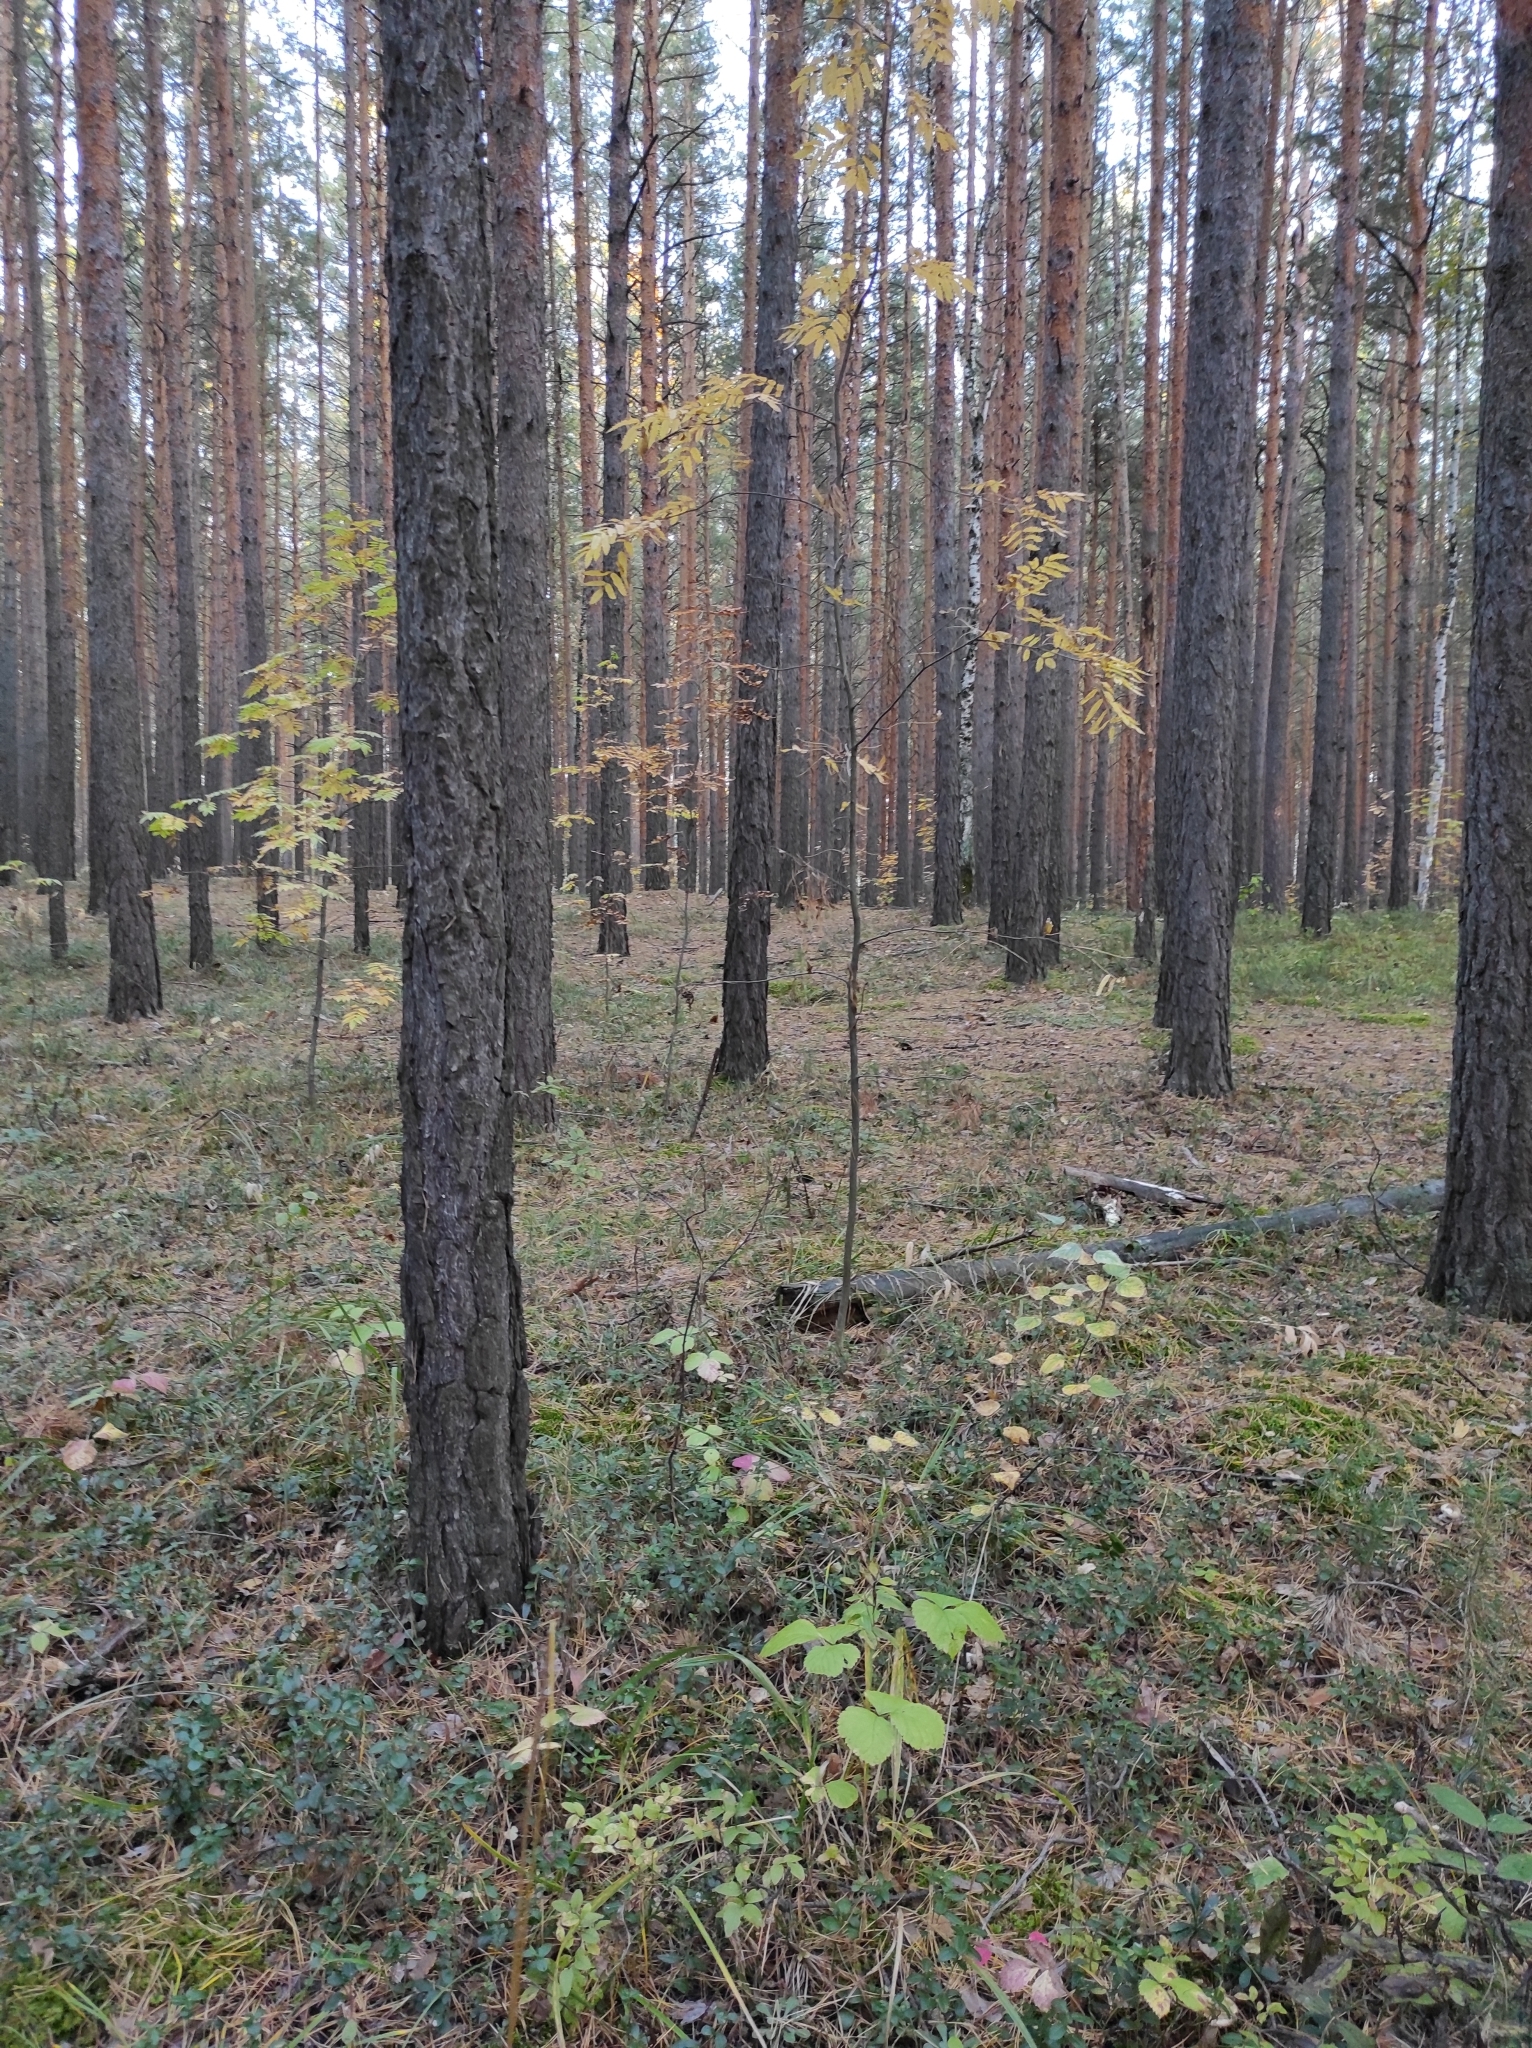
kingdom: Plantae
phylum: Tracheophyta
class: Pinopsida
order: Pinales
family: Pinaceae
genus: Pinus
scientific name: Pinus sylvestris
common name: Scots pine
